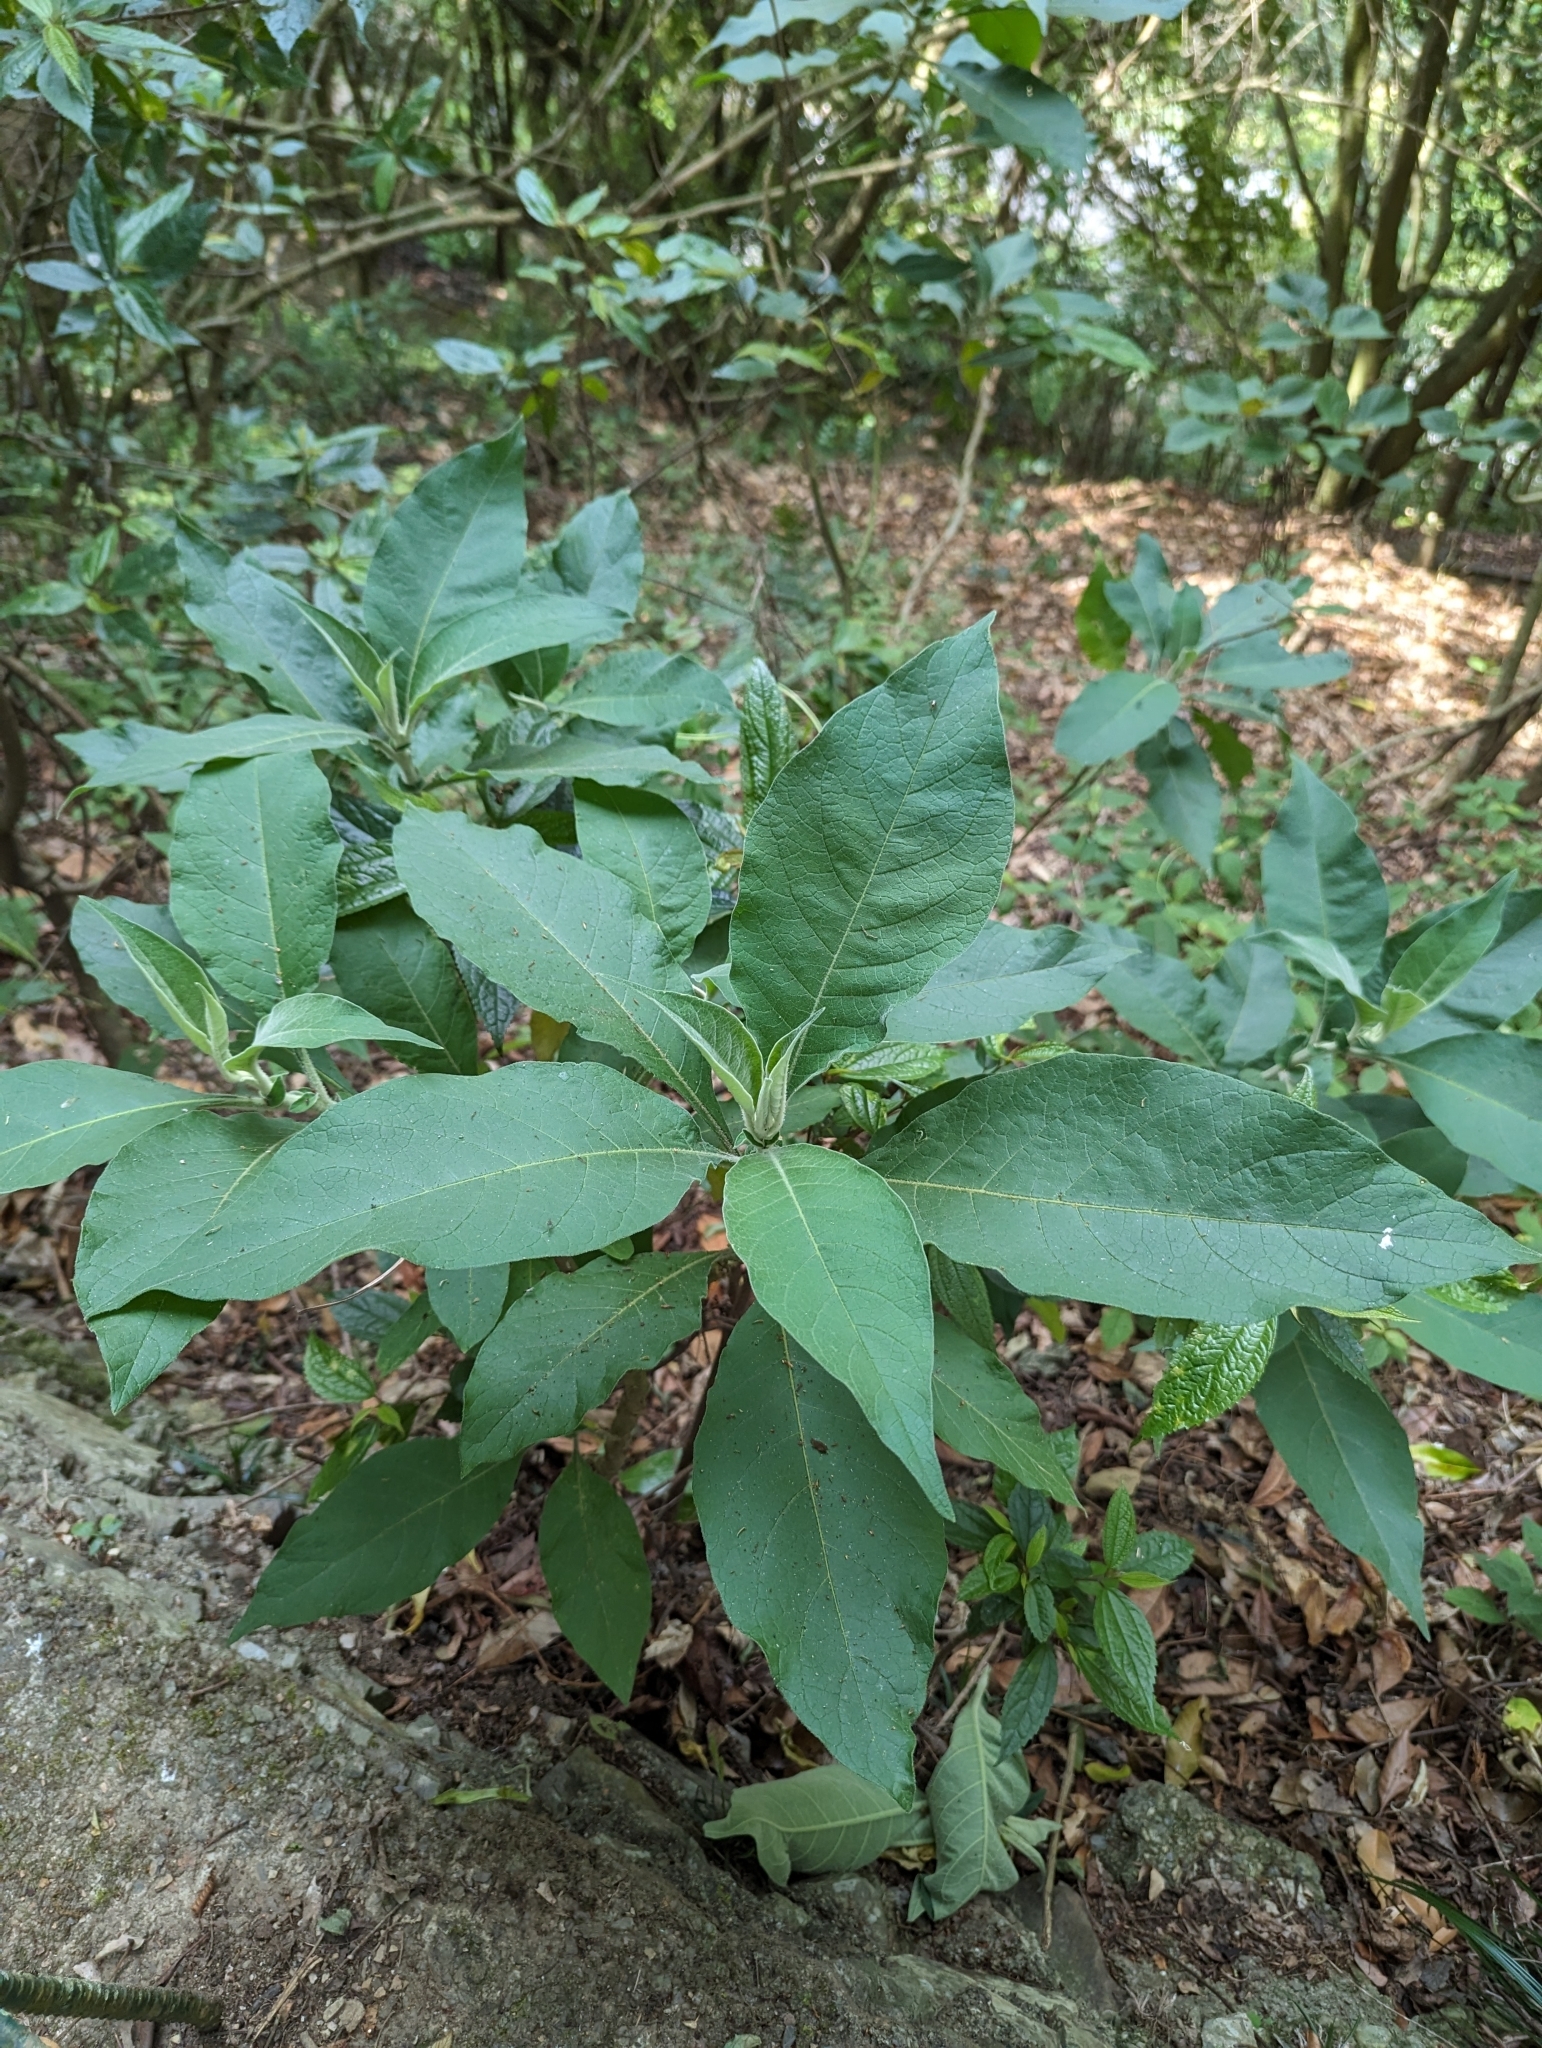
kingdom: Plantae
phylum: Tracheophyta
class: Magnoliopsida
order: Solanales
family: Solanaceae
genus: Solanum
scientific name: Solanum mauritianum
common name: Earleaf nightshade
